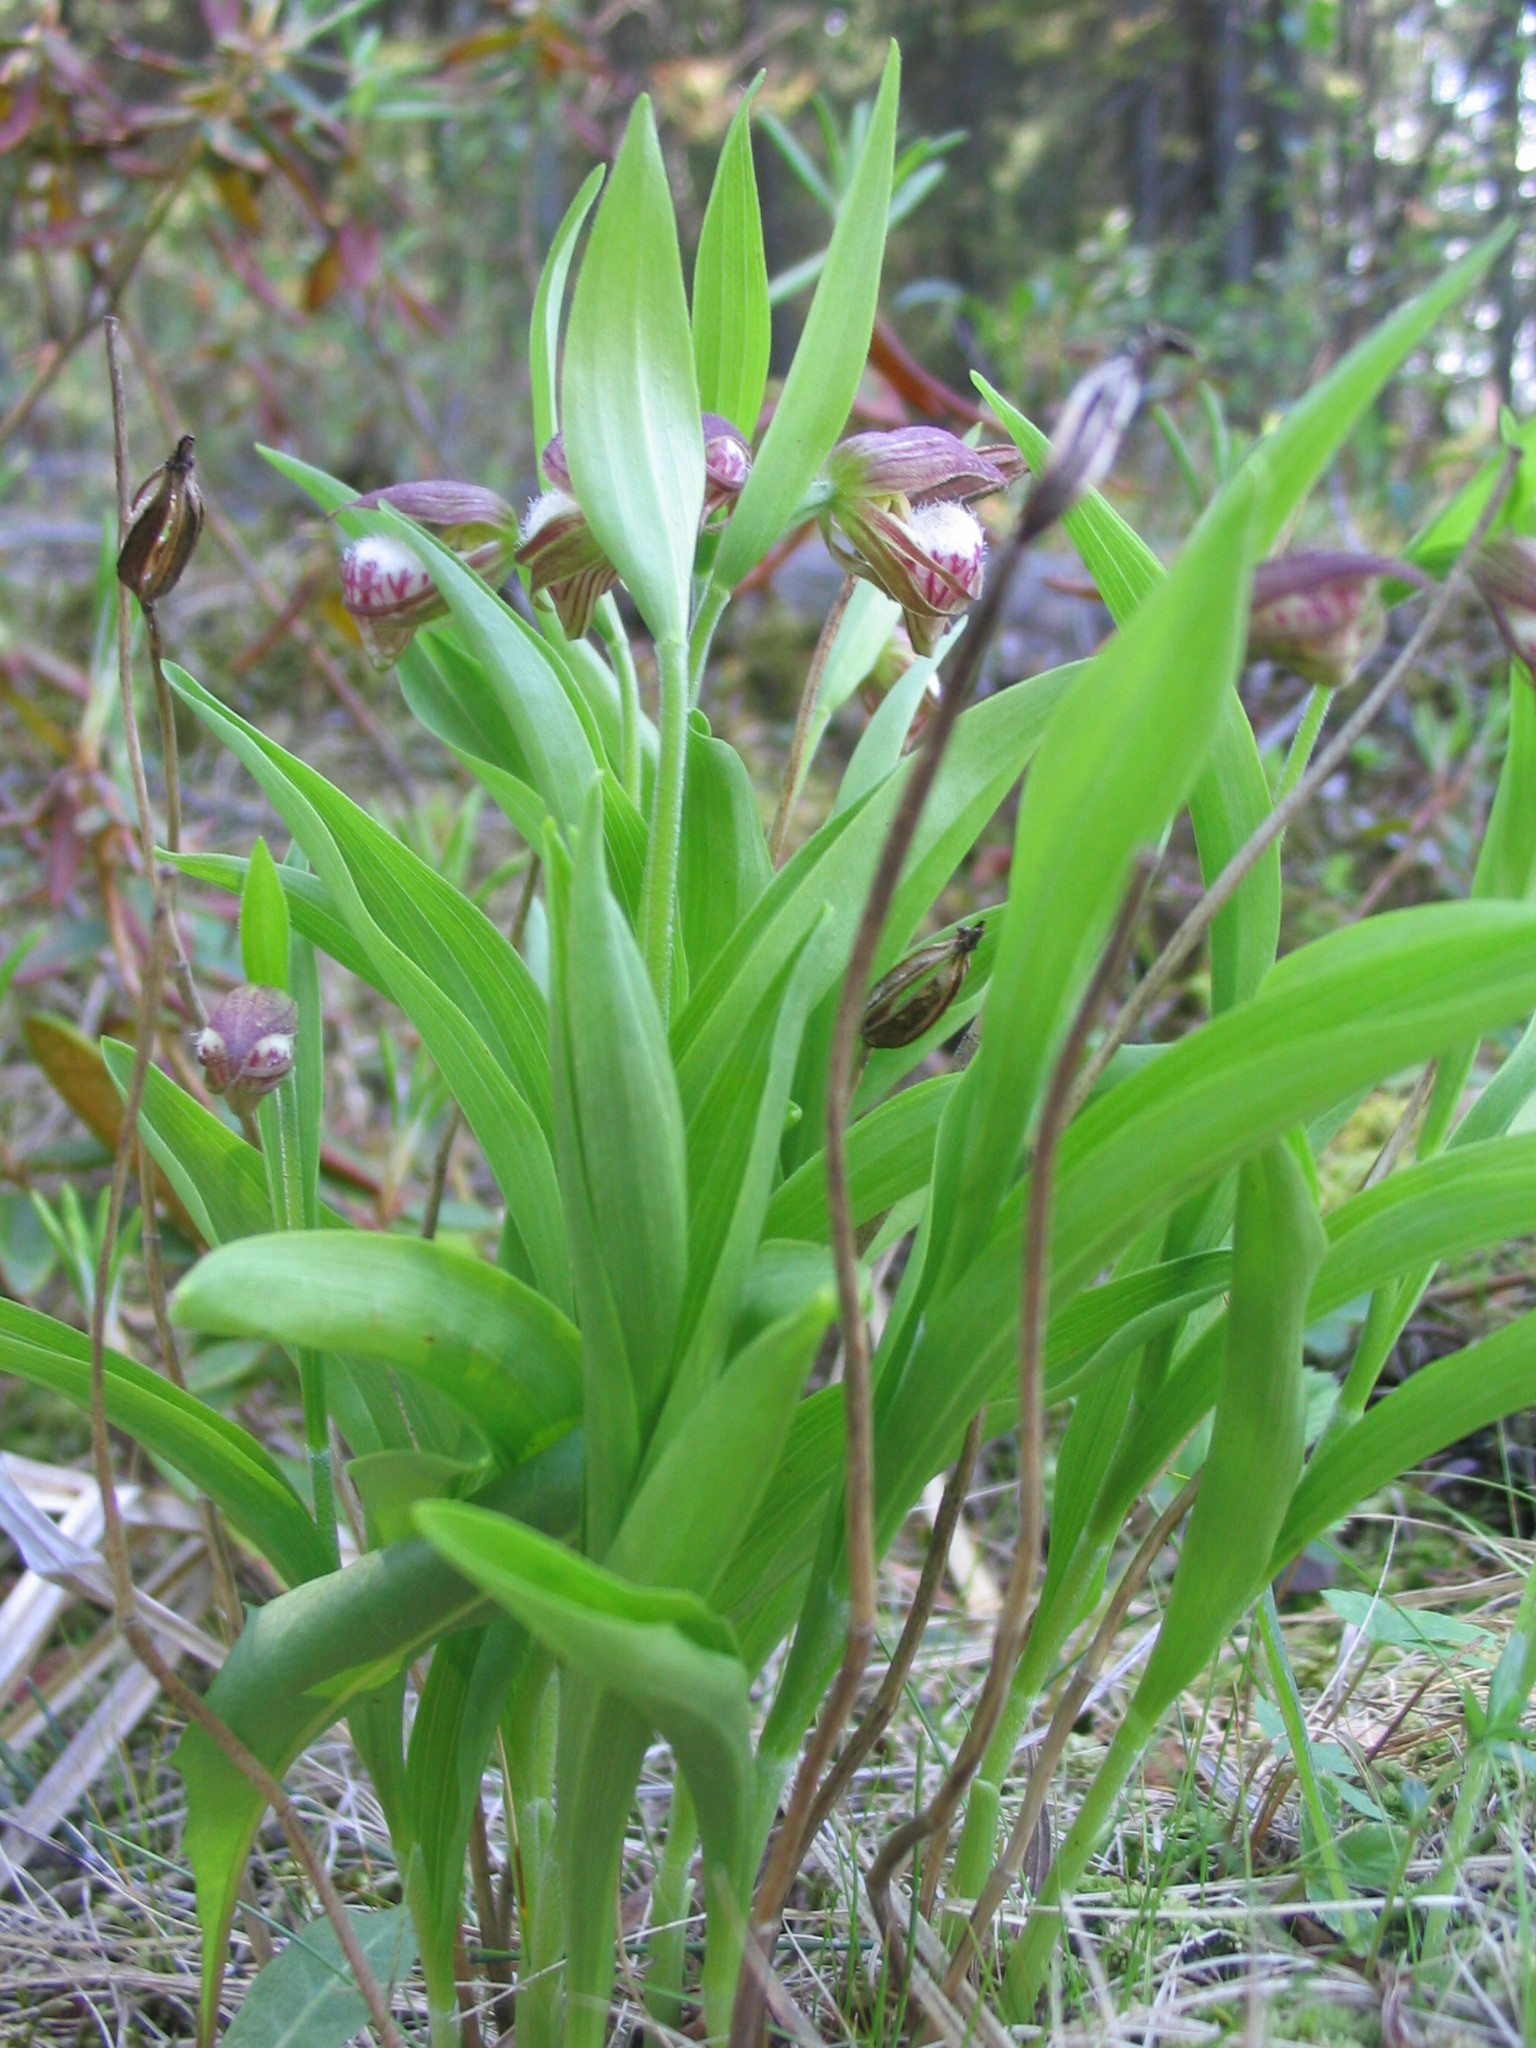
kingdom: Plantae
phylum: Tracheophyta
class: Liliopsida
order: Asparagales
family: Orchidaceae
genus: Cypripedium
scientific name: Cypripedium arietinum
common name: Ram's-head
